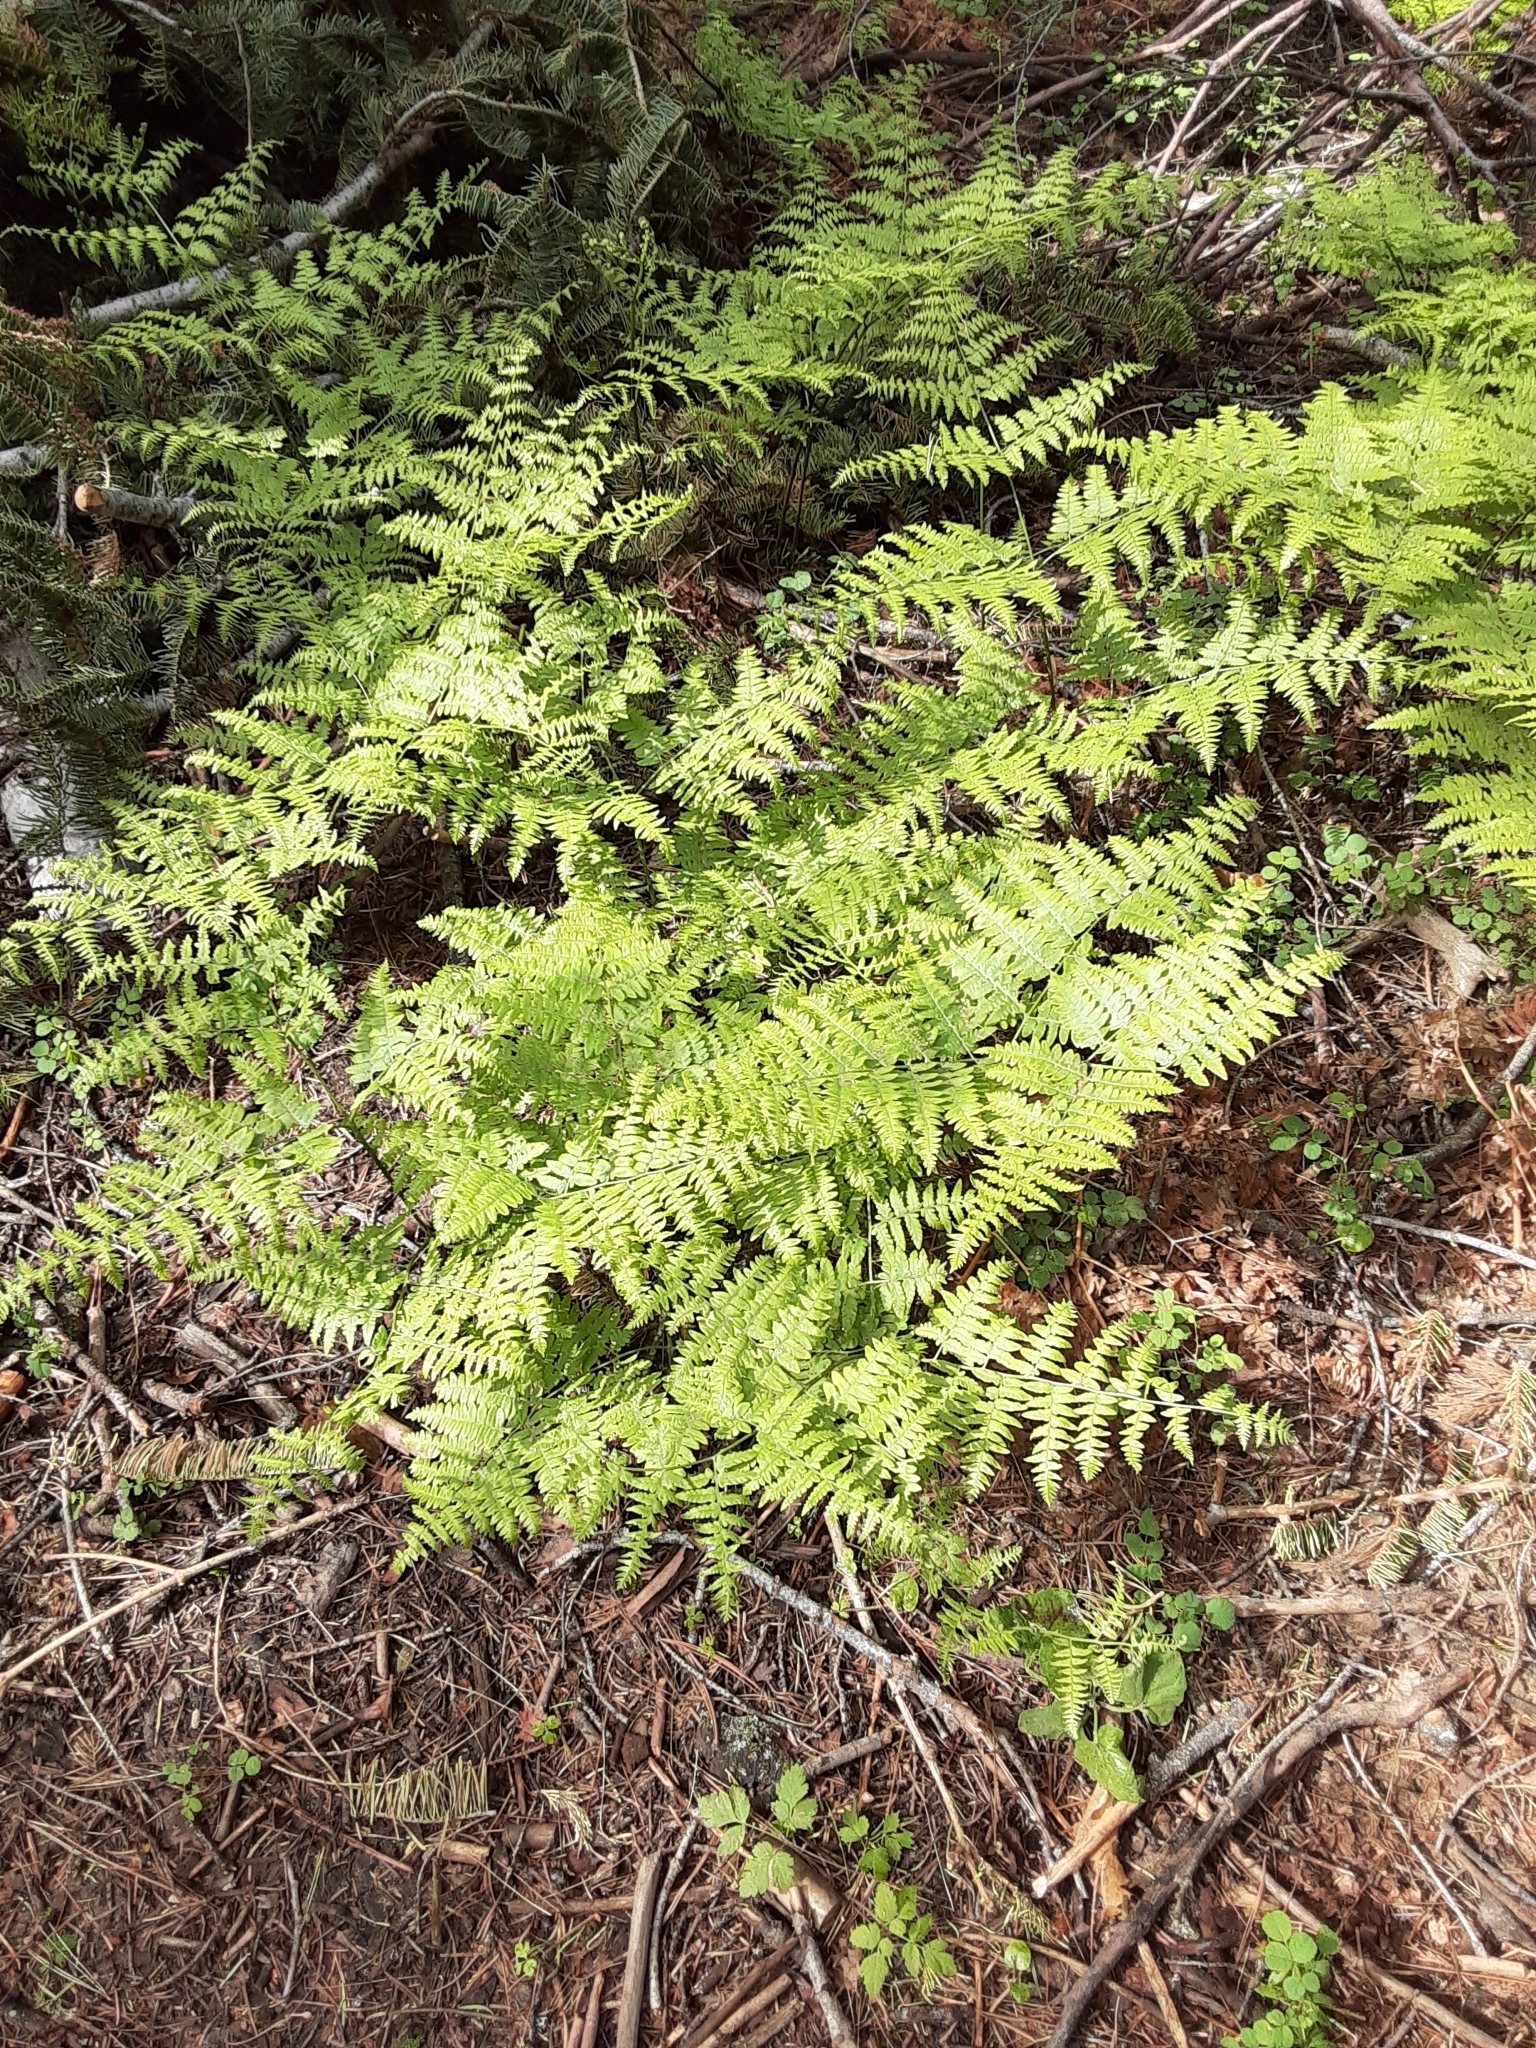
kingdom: Plantae
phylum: Tracheophyta
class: Polypodiopsida
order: Polypodiales
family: Dennstaedtiaceae
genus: Pteridium
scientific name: Pteridium aquilinum
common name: Bracken
